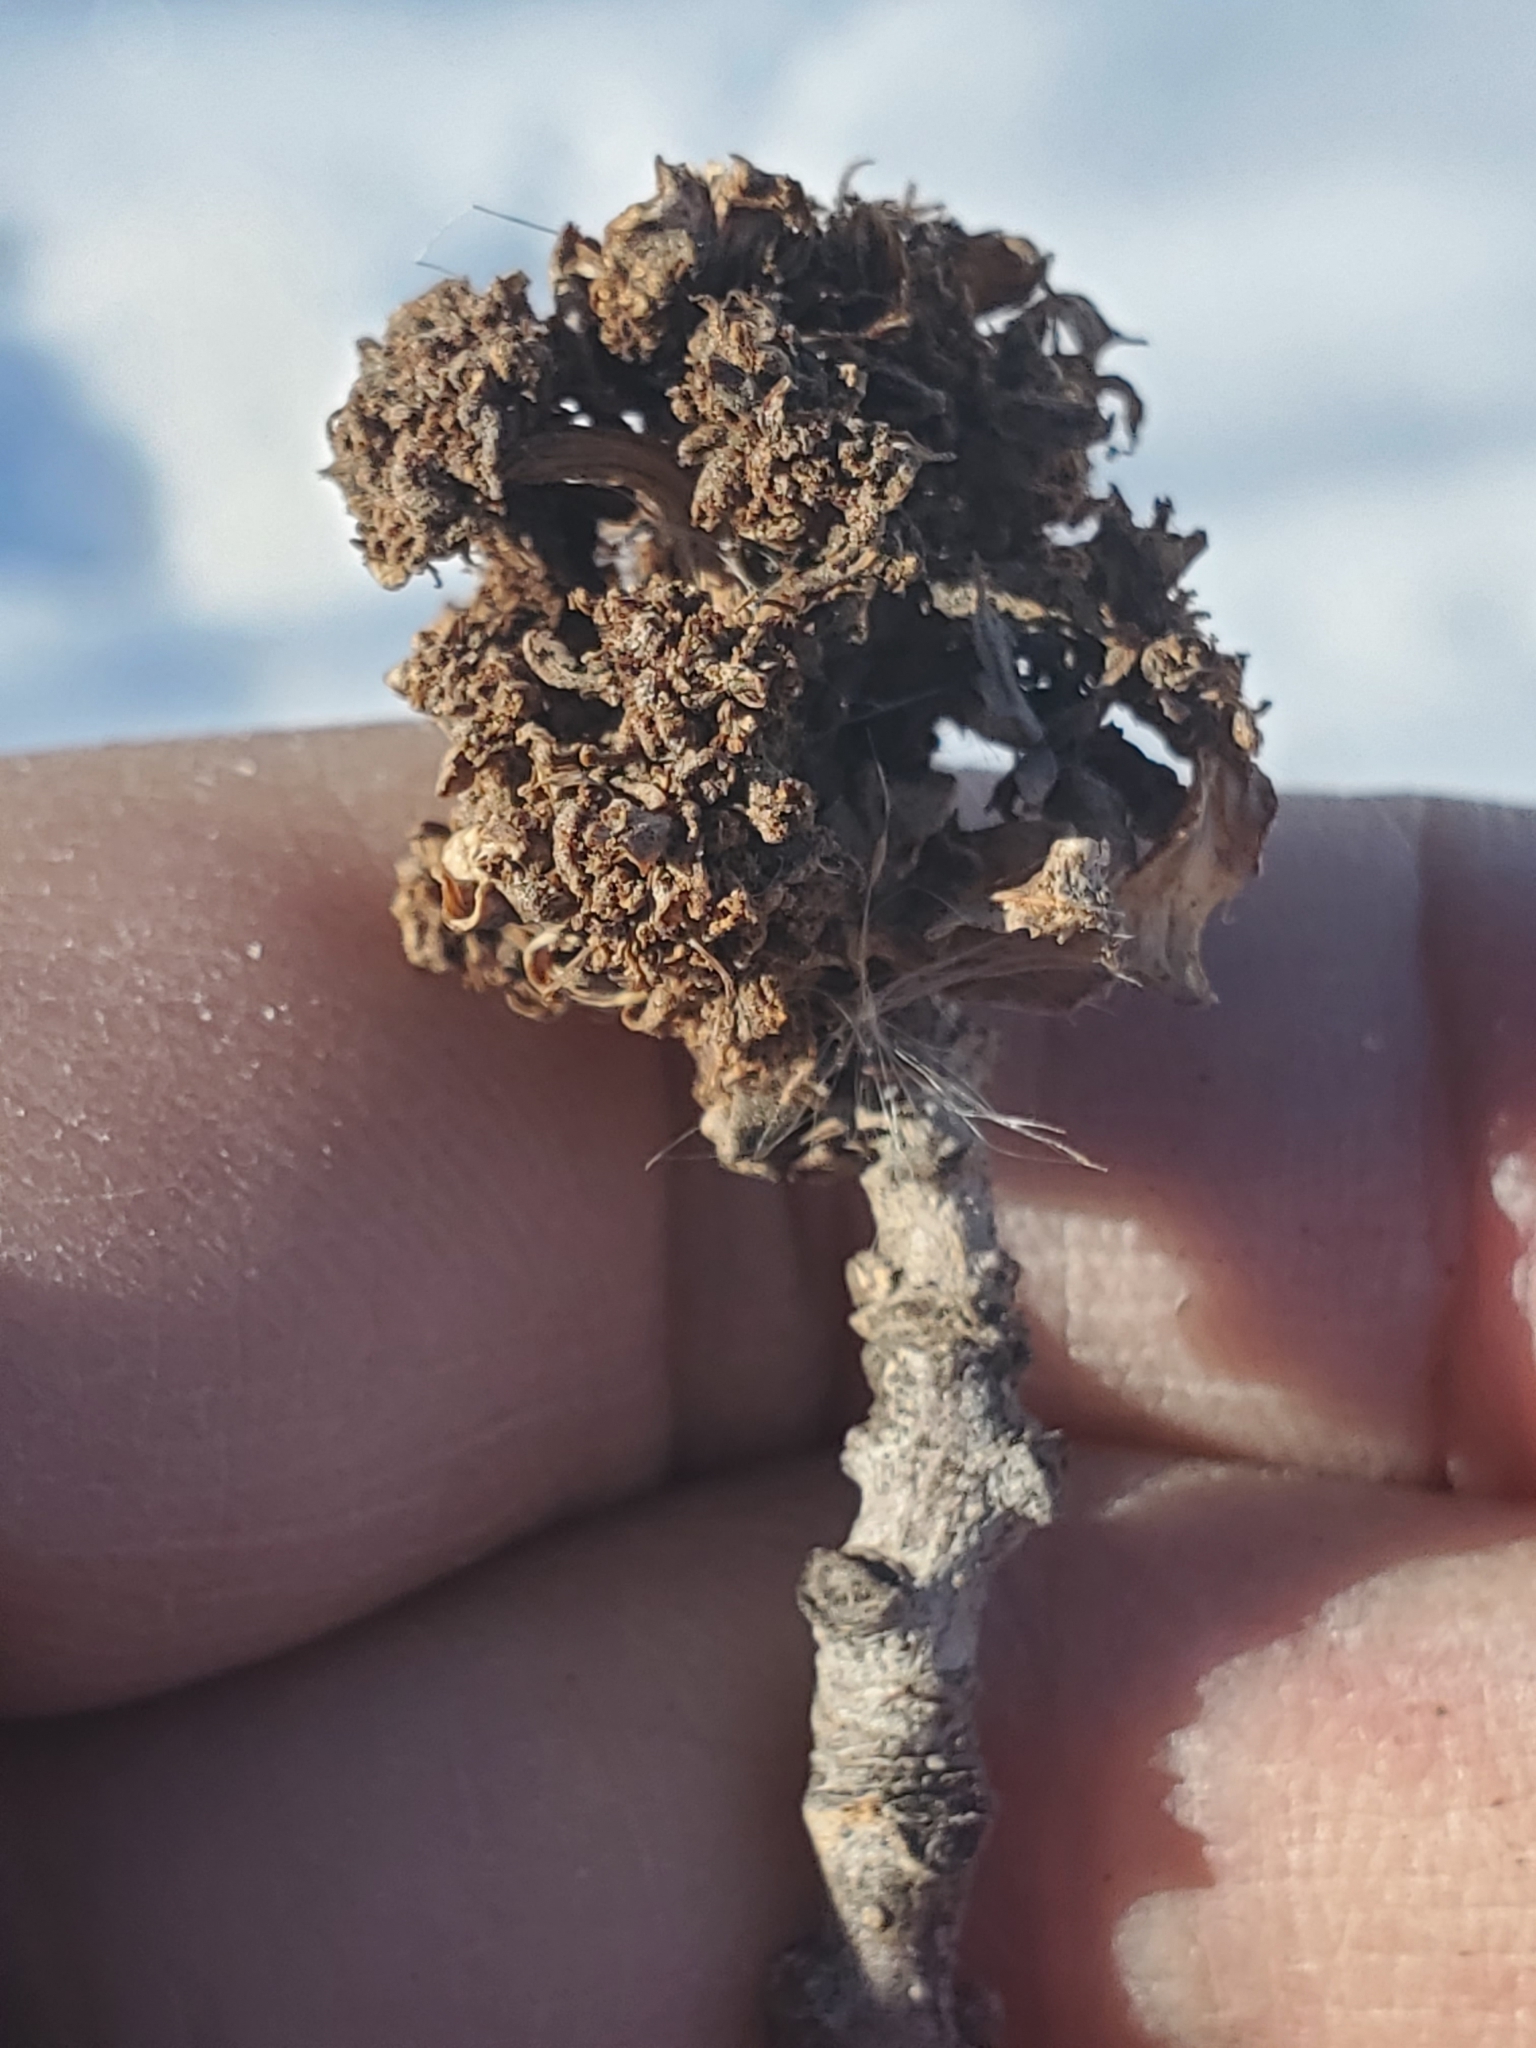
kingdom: Animalia
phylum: Arthropoda
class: Arachnida
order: Trombidiformes
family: Eriophyidae
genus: Aceria
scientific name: Aceria fraxiniflora
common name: Ash flower gall mite
